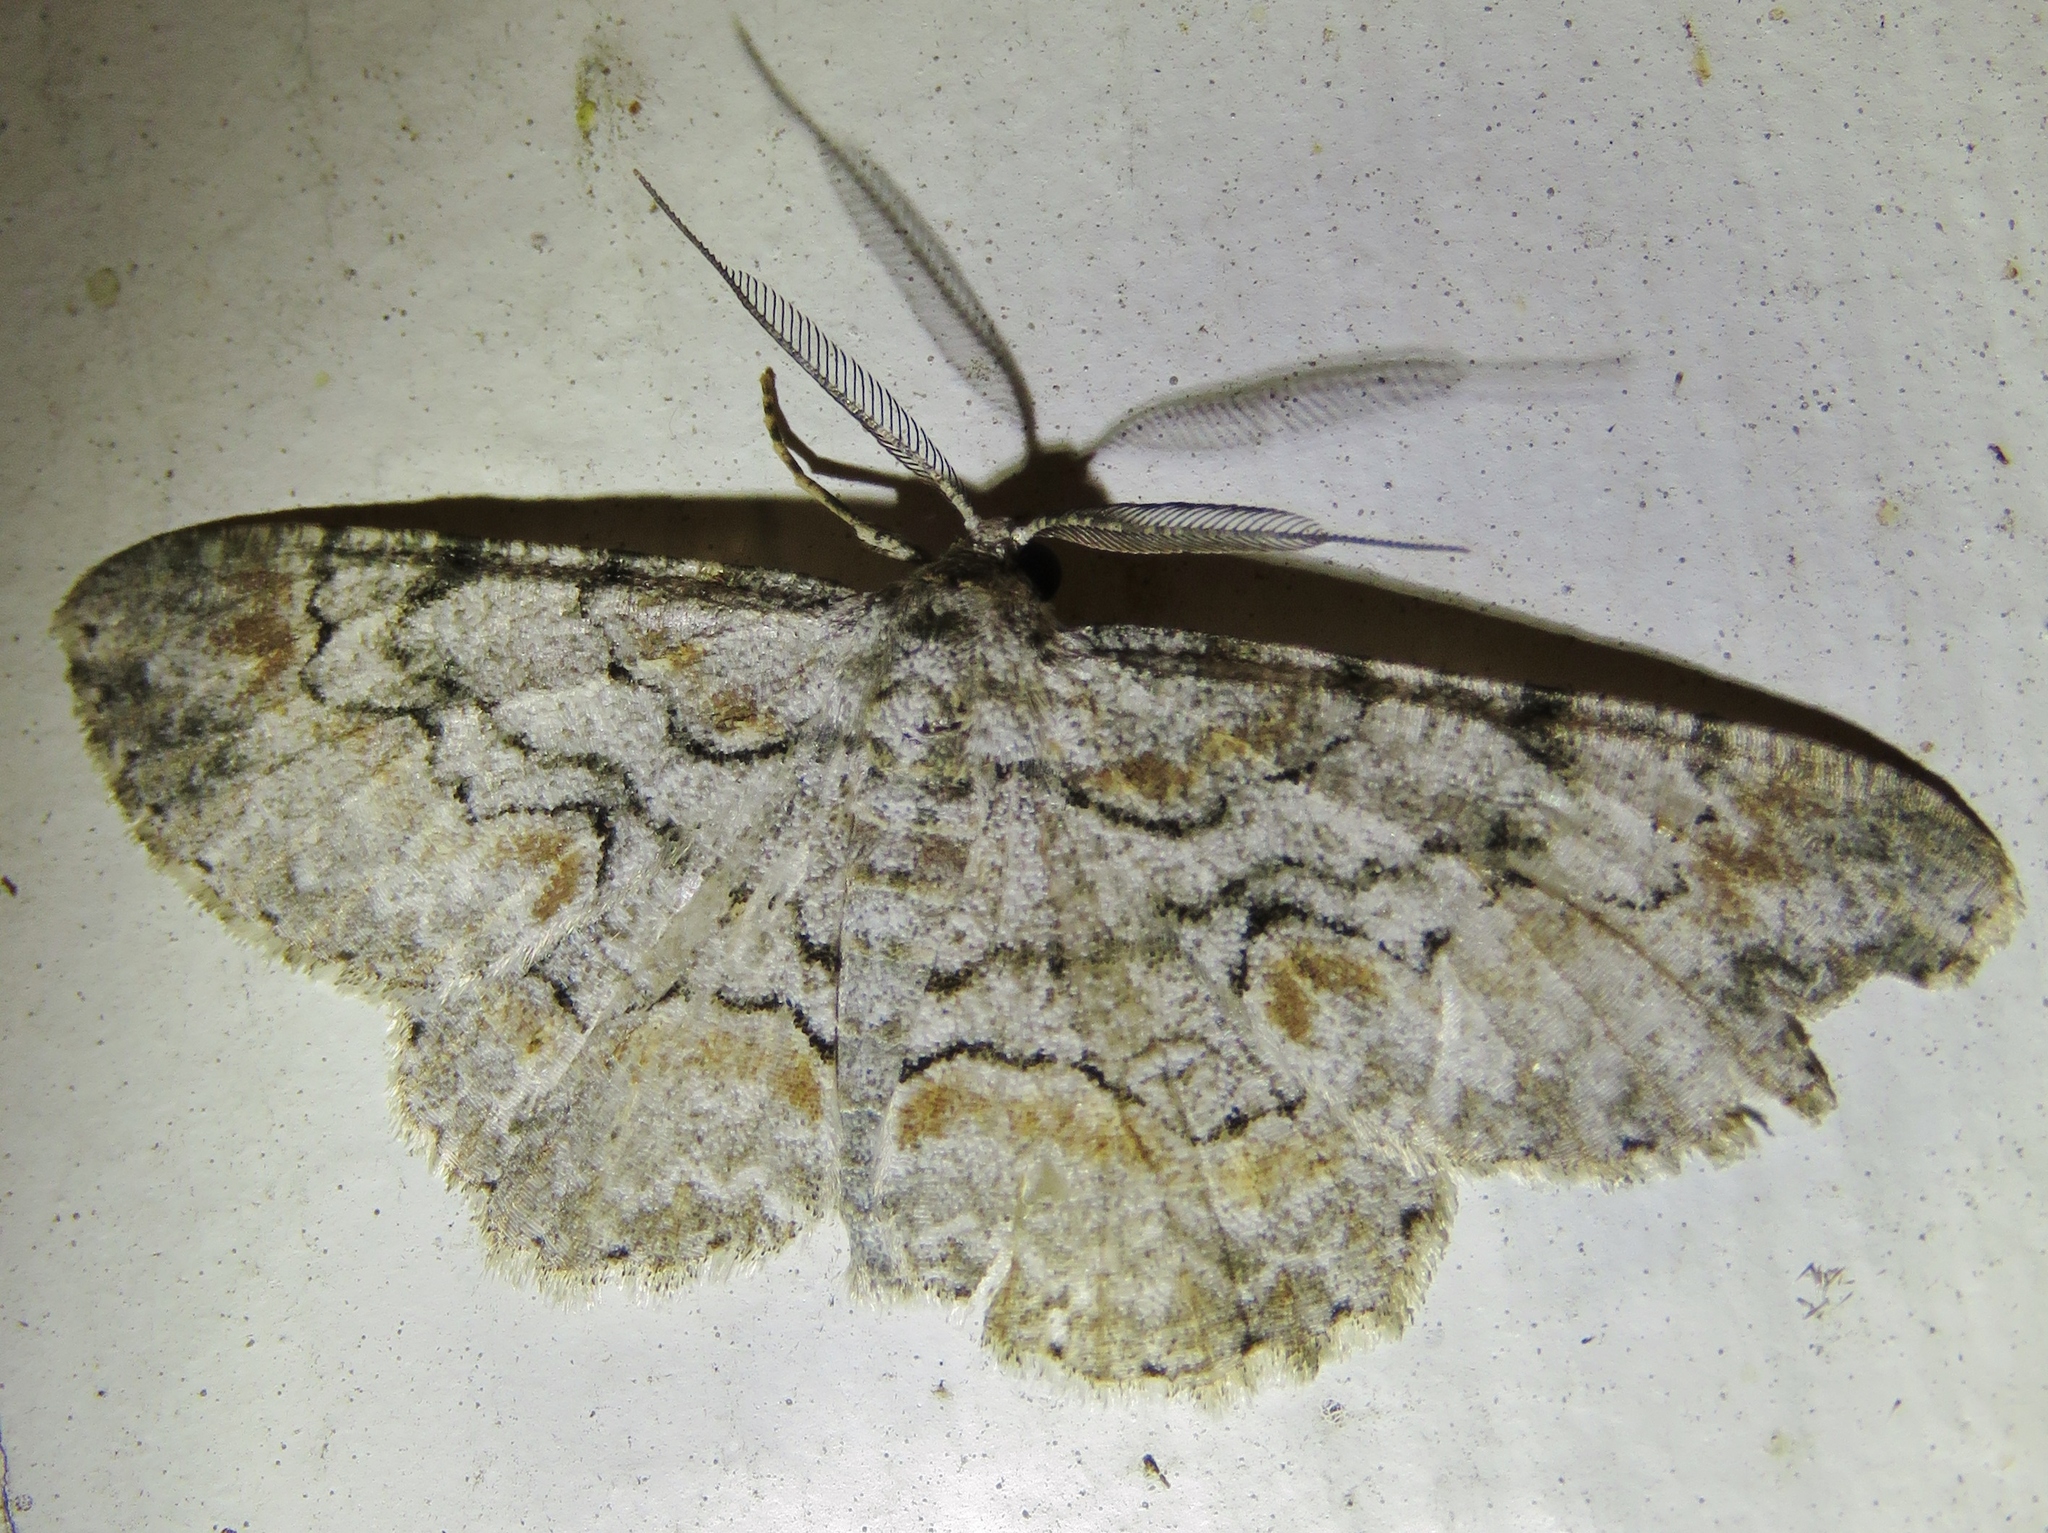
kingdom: Animalia
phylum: Arthropoda
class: Insecta
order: Lepidoptera
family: Geometridae
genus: Iridopsis
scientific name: Iridopsis defectaria
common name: Brown-shaded gray
